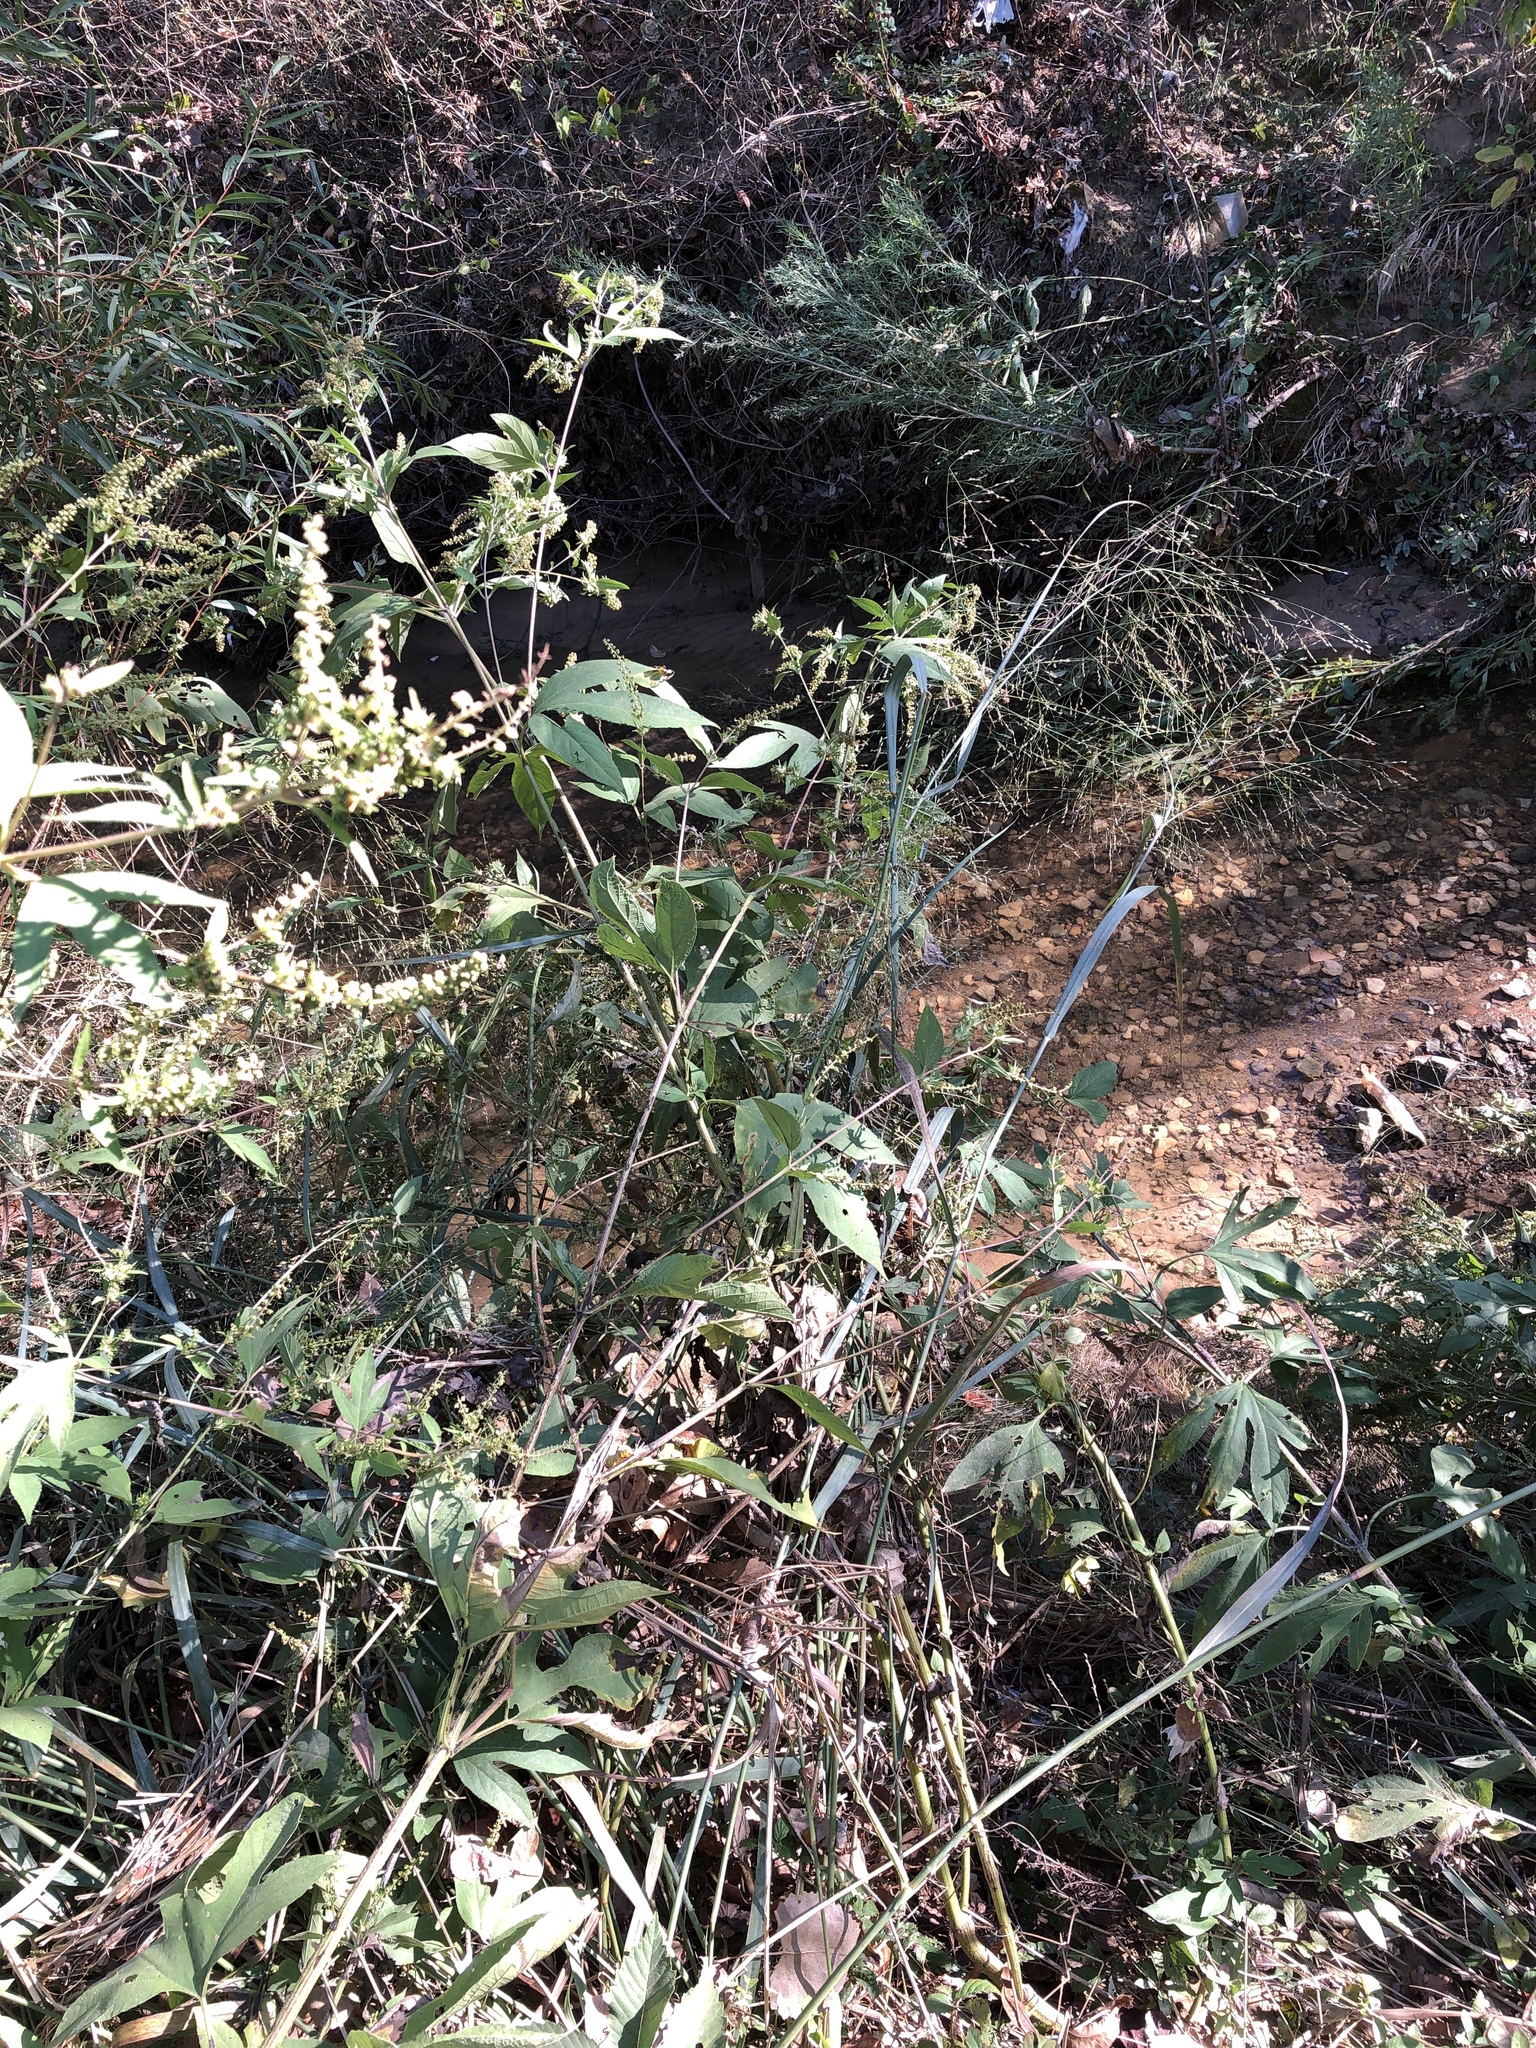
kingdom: Plantae
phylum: Tracheophyta
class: Liliopsida
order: Poales
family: Poaceae
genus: Panicum
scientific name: Panicum virgatum
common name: Switchgrass
